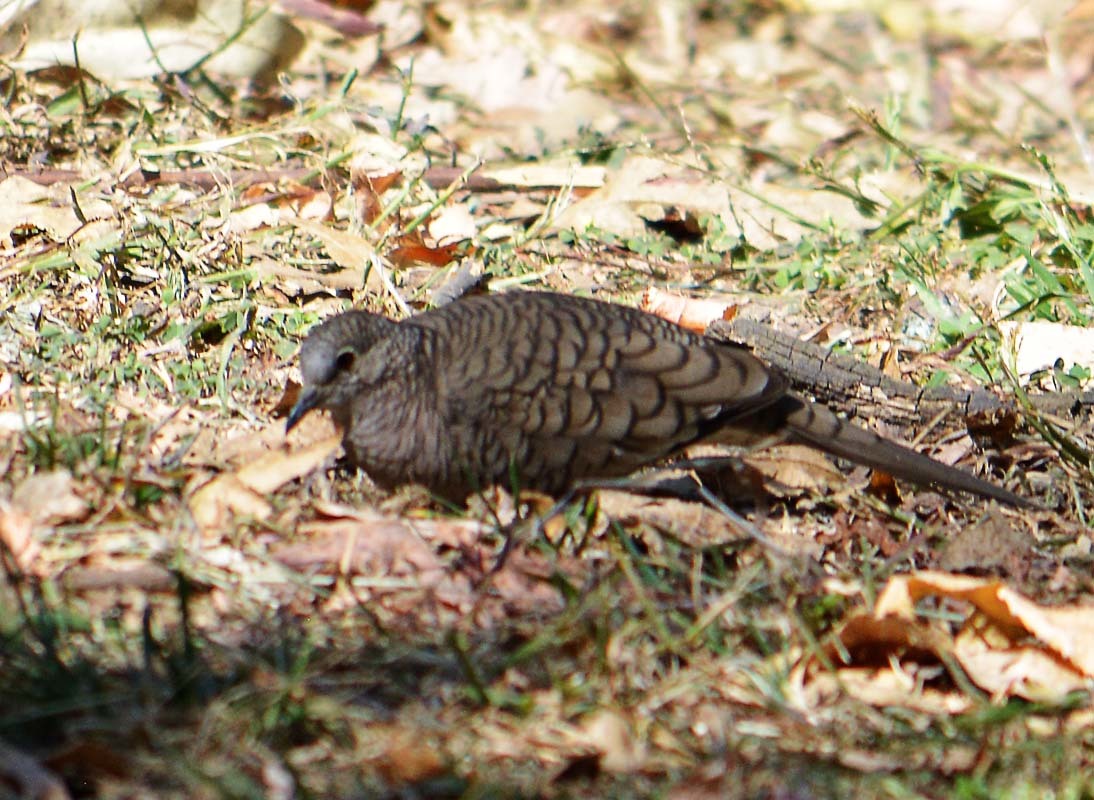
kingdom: Animalia
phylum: Chordata
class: Aves
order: Columbiformes
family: Columbidae
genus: Columbina
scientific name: Columbina inca
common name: Inca dove
